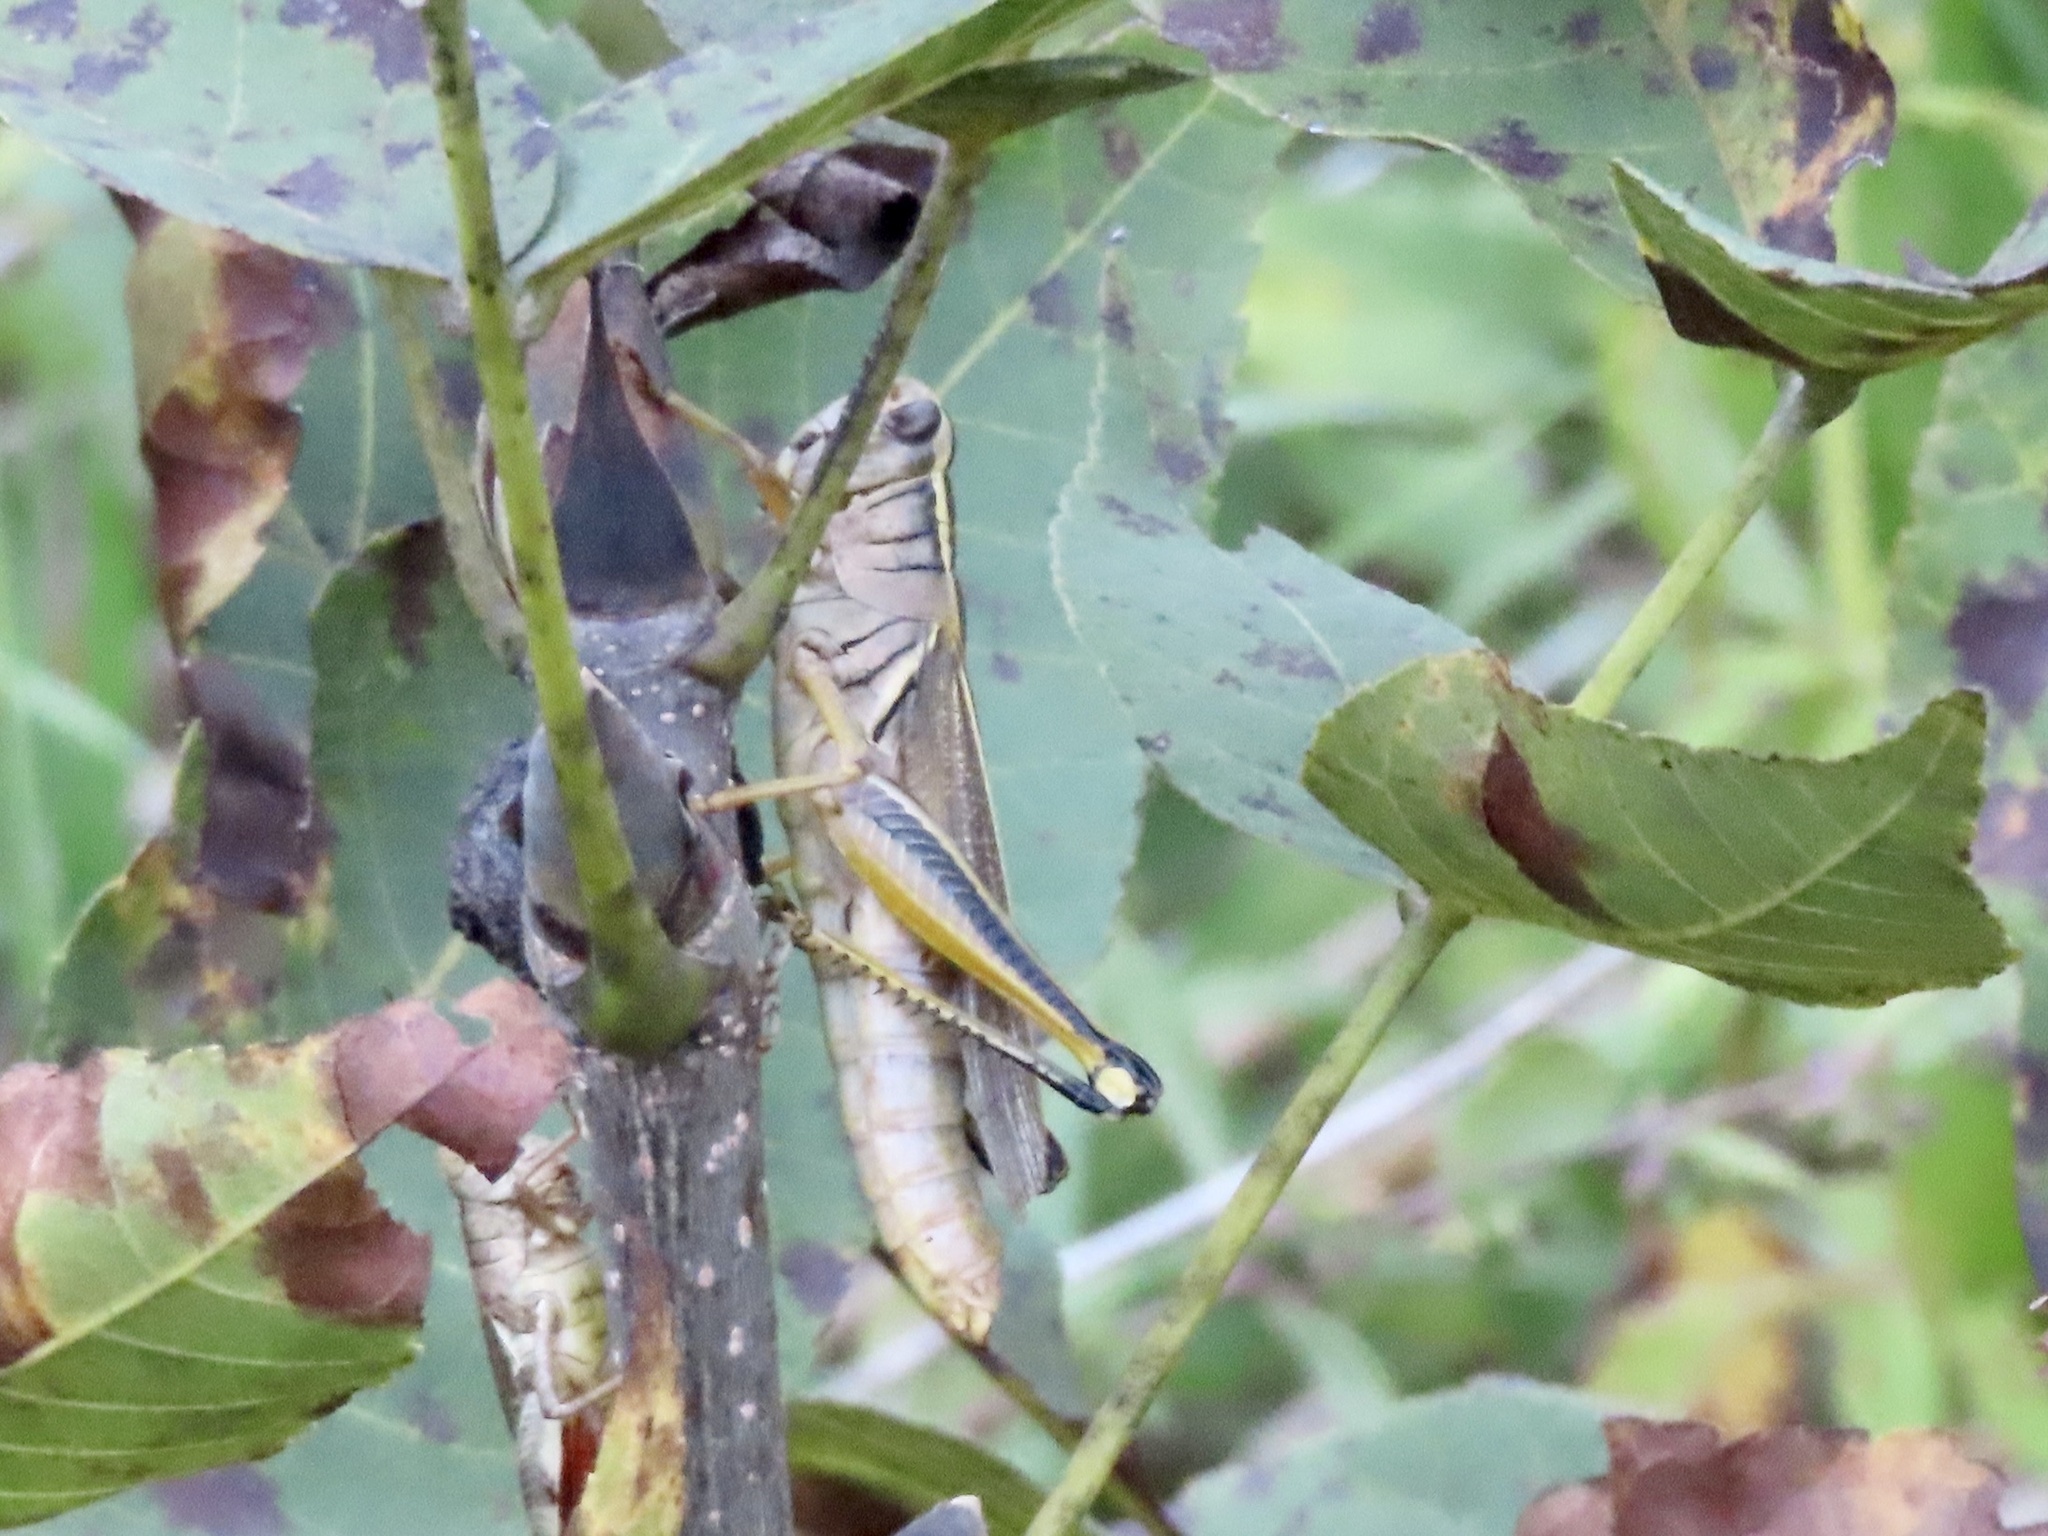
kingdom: Animalia
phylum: Arthropoda
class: Insecta
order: Orthoptera
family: Acrididae
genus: Melanoplus
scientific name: Melanoplus bivittatus
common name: Two-striped grasshopper
